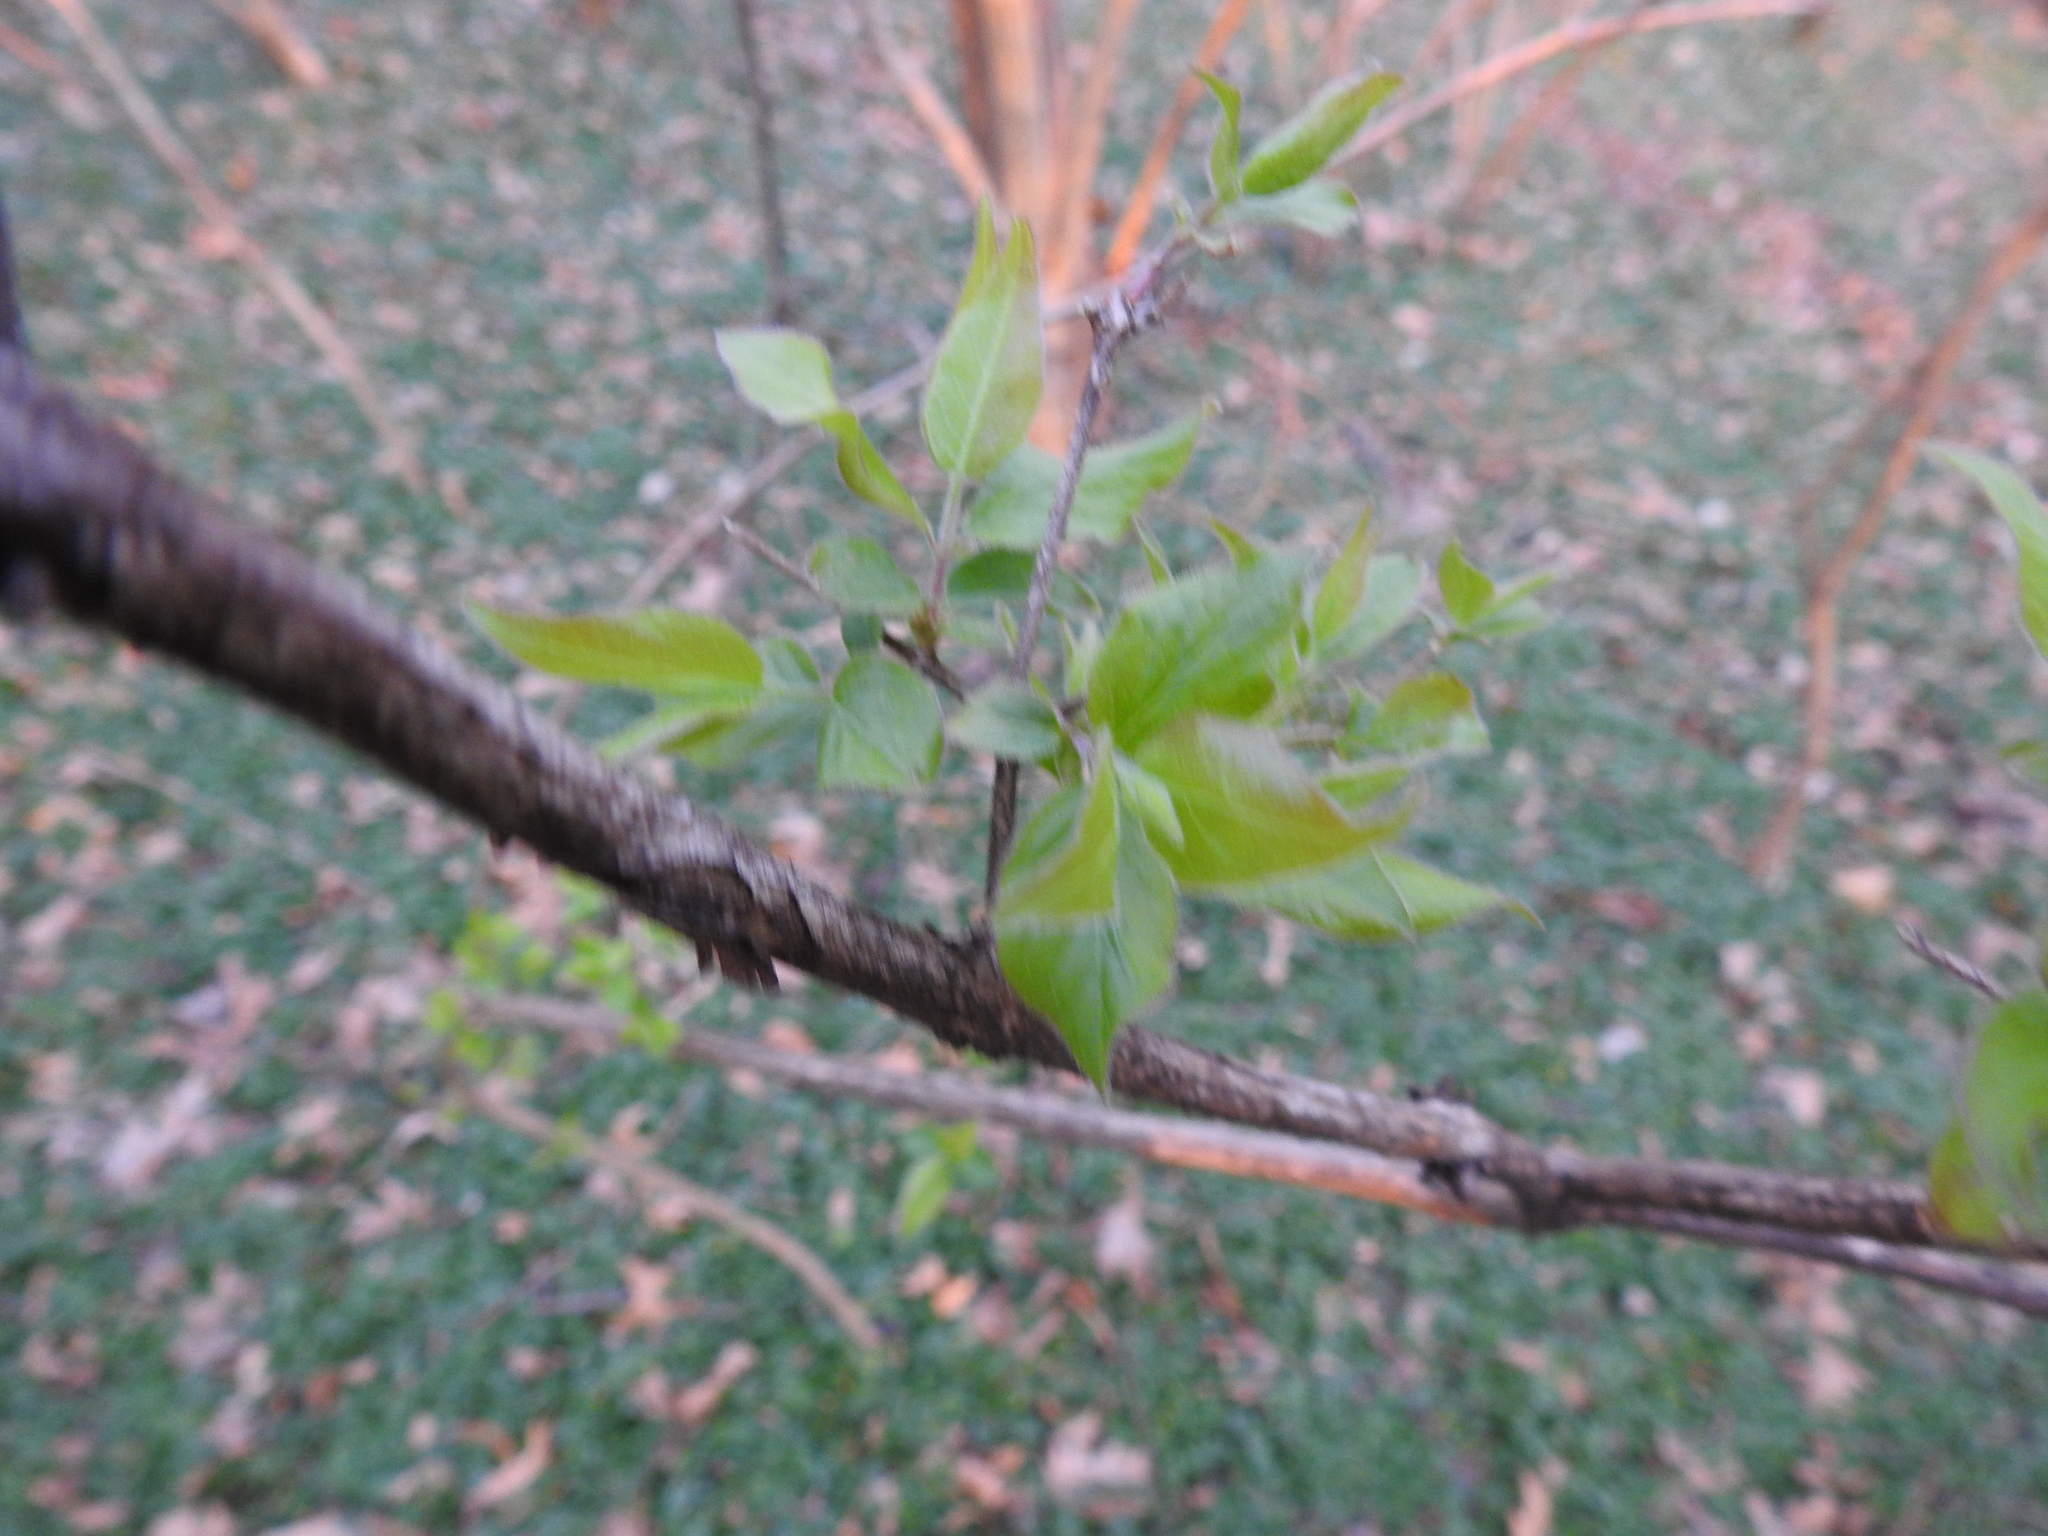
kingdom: Plantae
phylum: Tracheophyta
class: Magnoliopsida
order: Dipsacales
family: Caprifoliaceae
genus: Lonicera
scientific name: Lonicera maackii
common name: Amur honeysuckle
